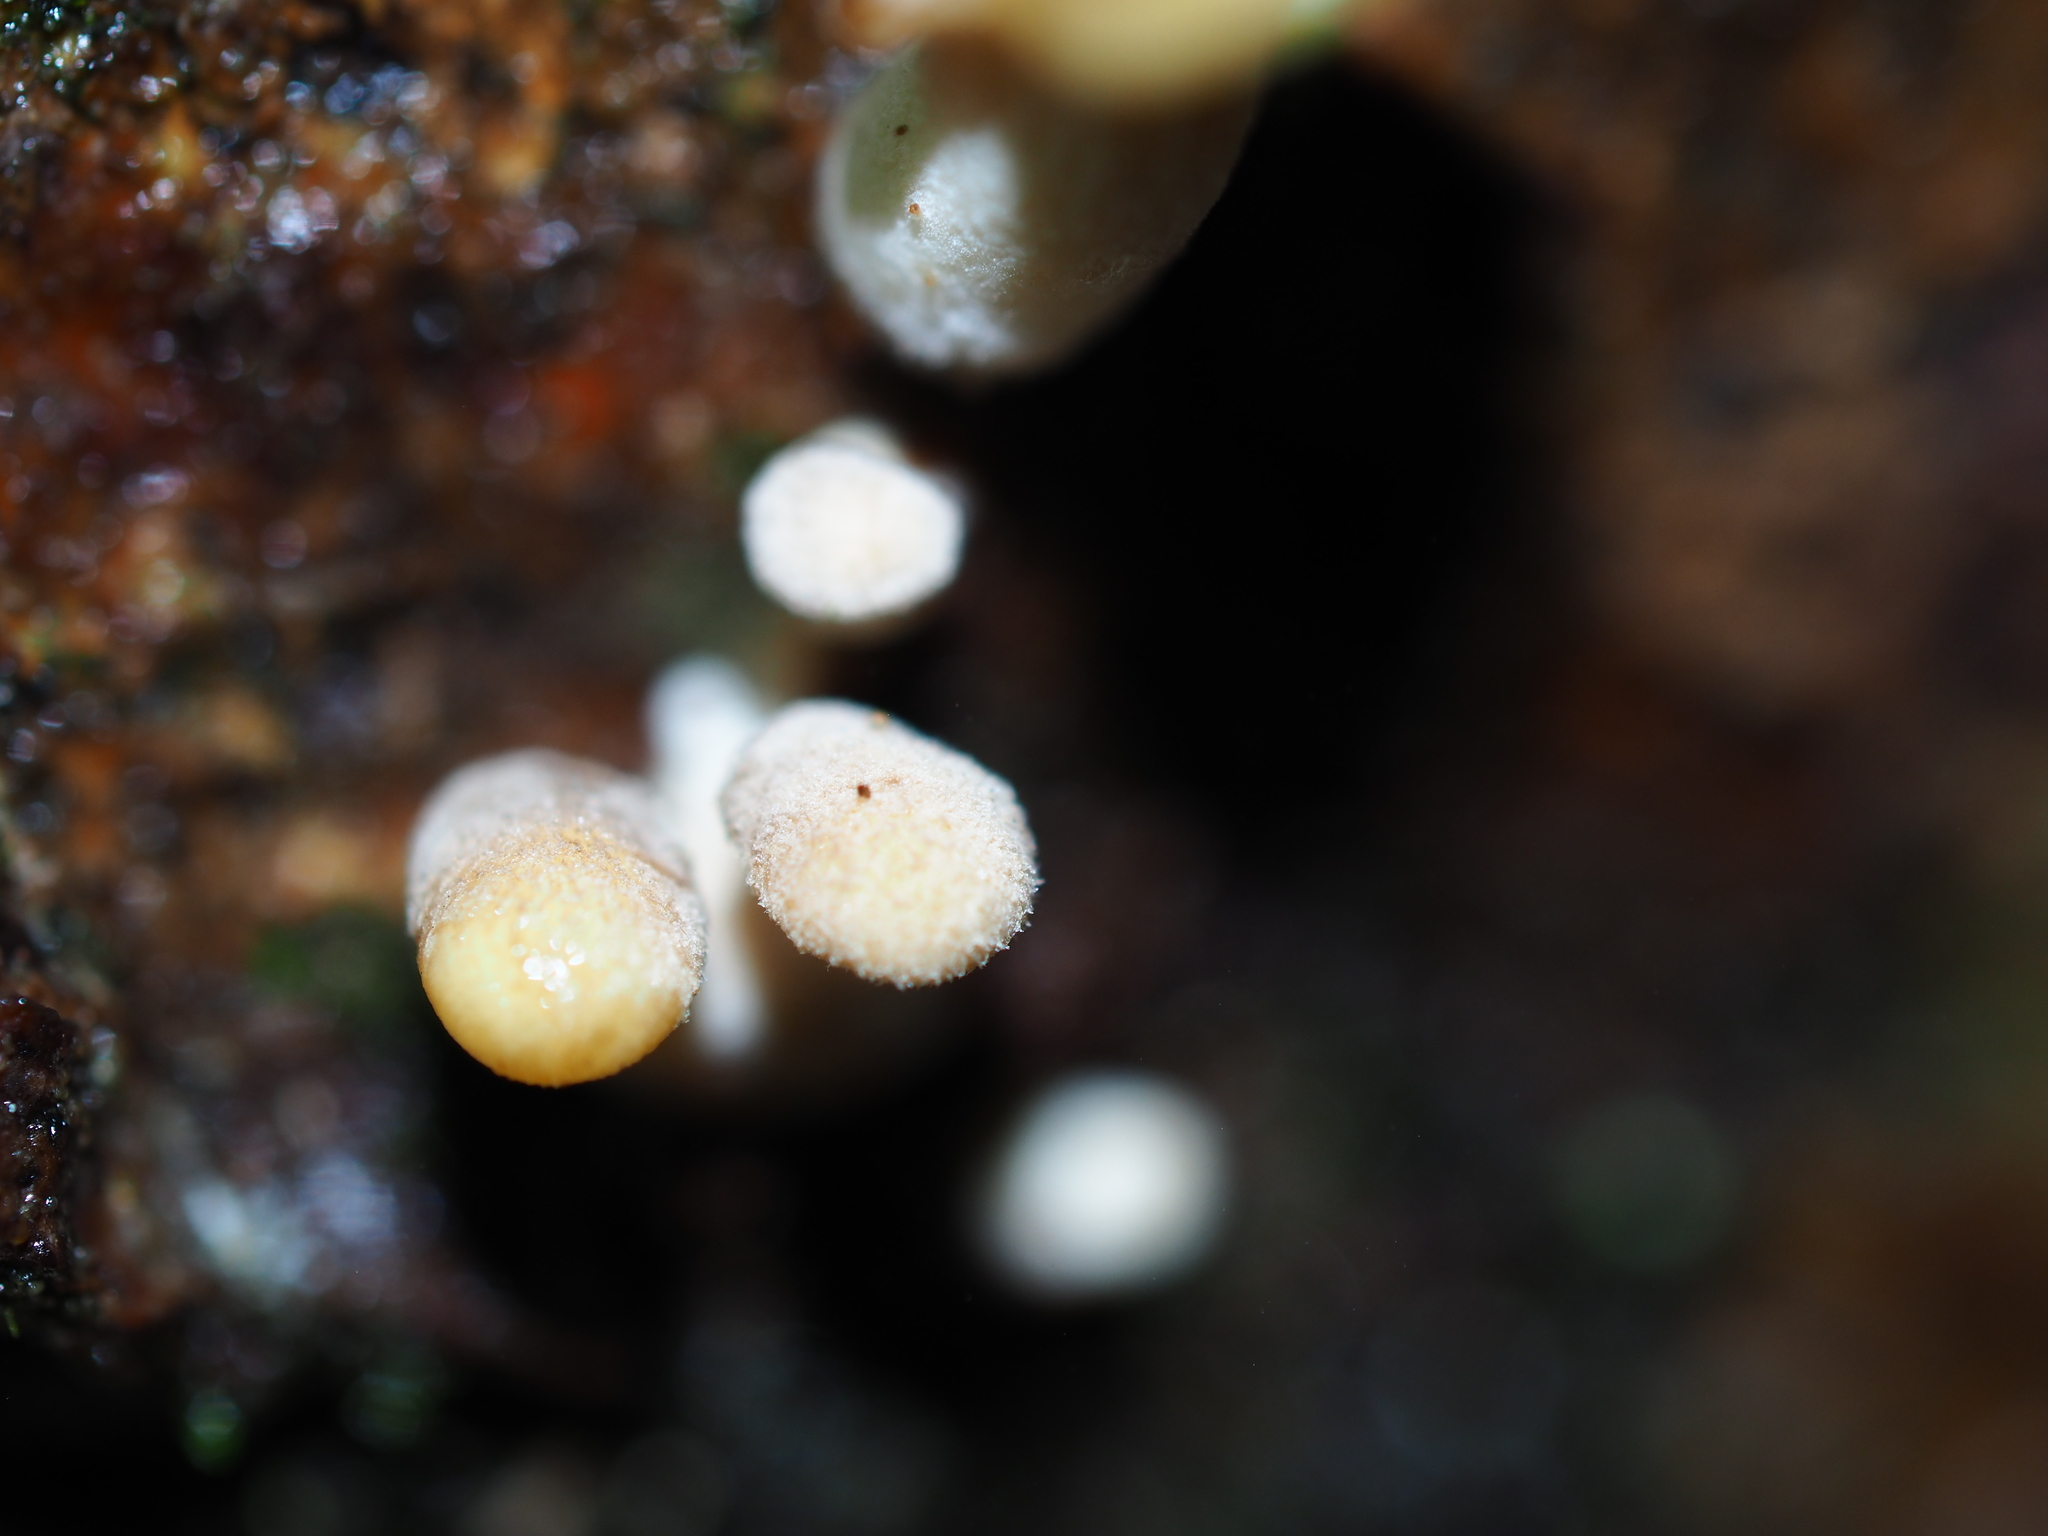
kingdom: Fungi
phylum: Basidiomycota
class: Agaricomycetes
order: Agaricales
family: Pleurotaceae
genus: Pleurotus
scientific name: Pleurotus purpureo-olivaceus
